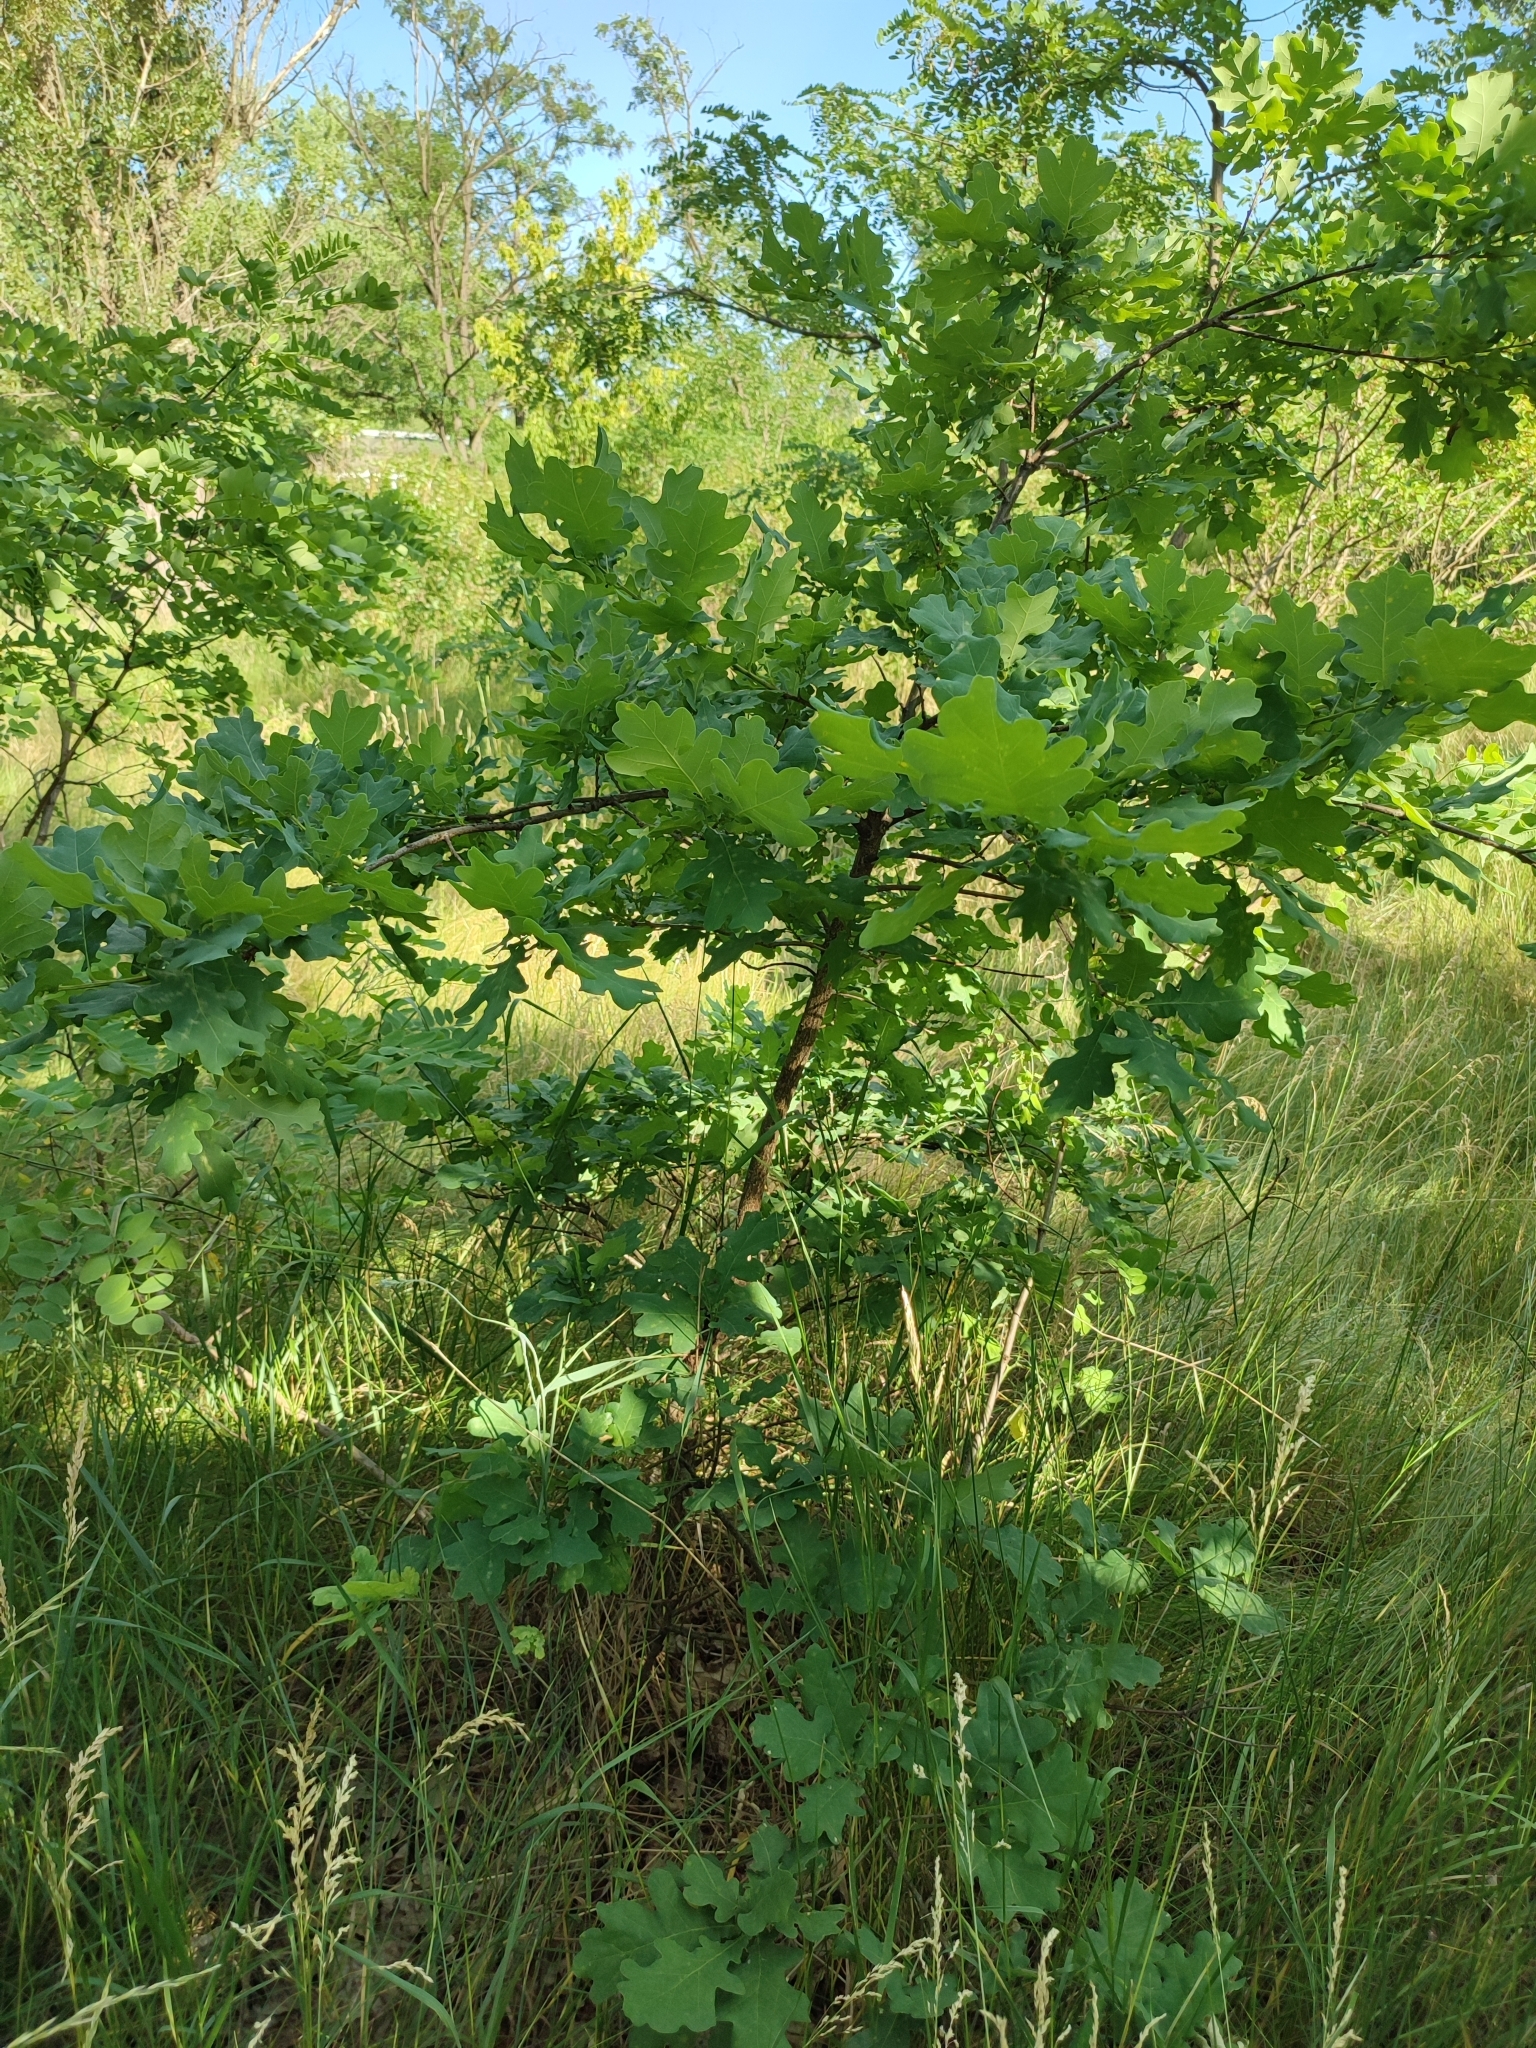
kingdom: Plantae
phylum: Tracheophyta
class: Magnoliopsida
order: Fagales
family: Fagaceae
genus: Quercus
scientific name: Quercus robur
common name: Pedunculate oak
